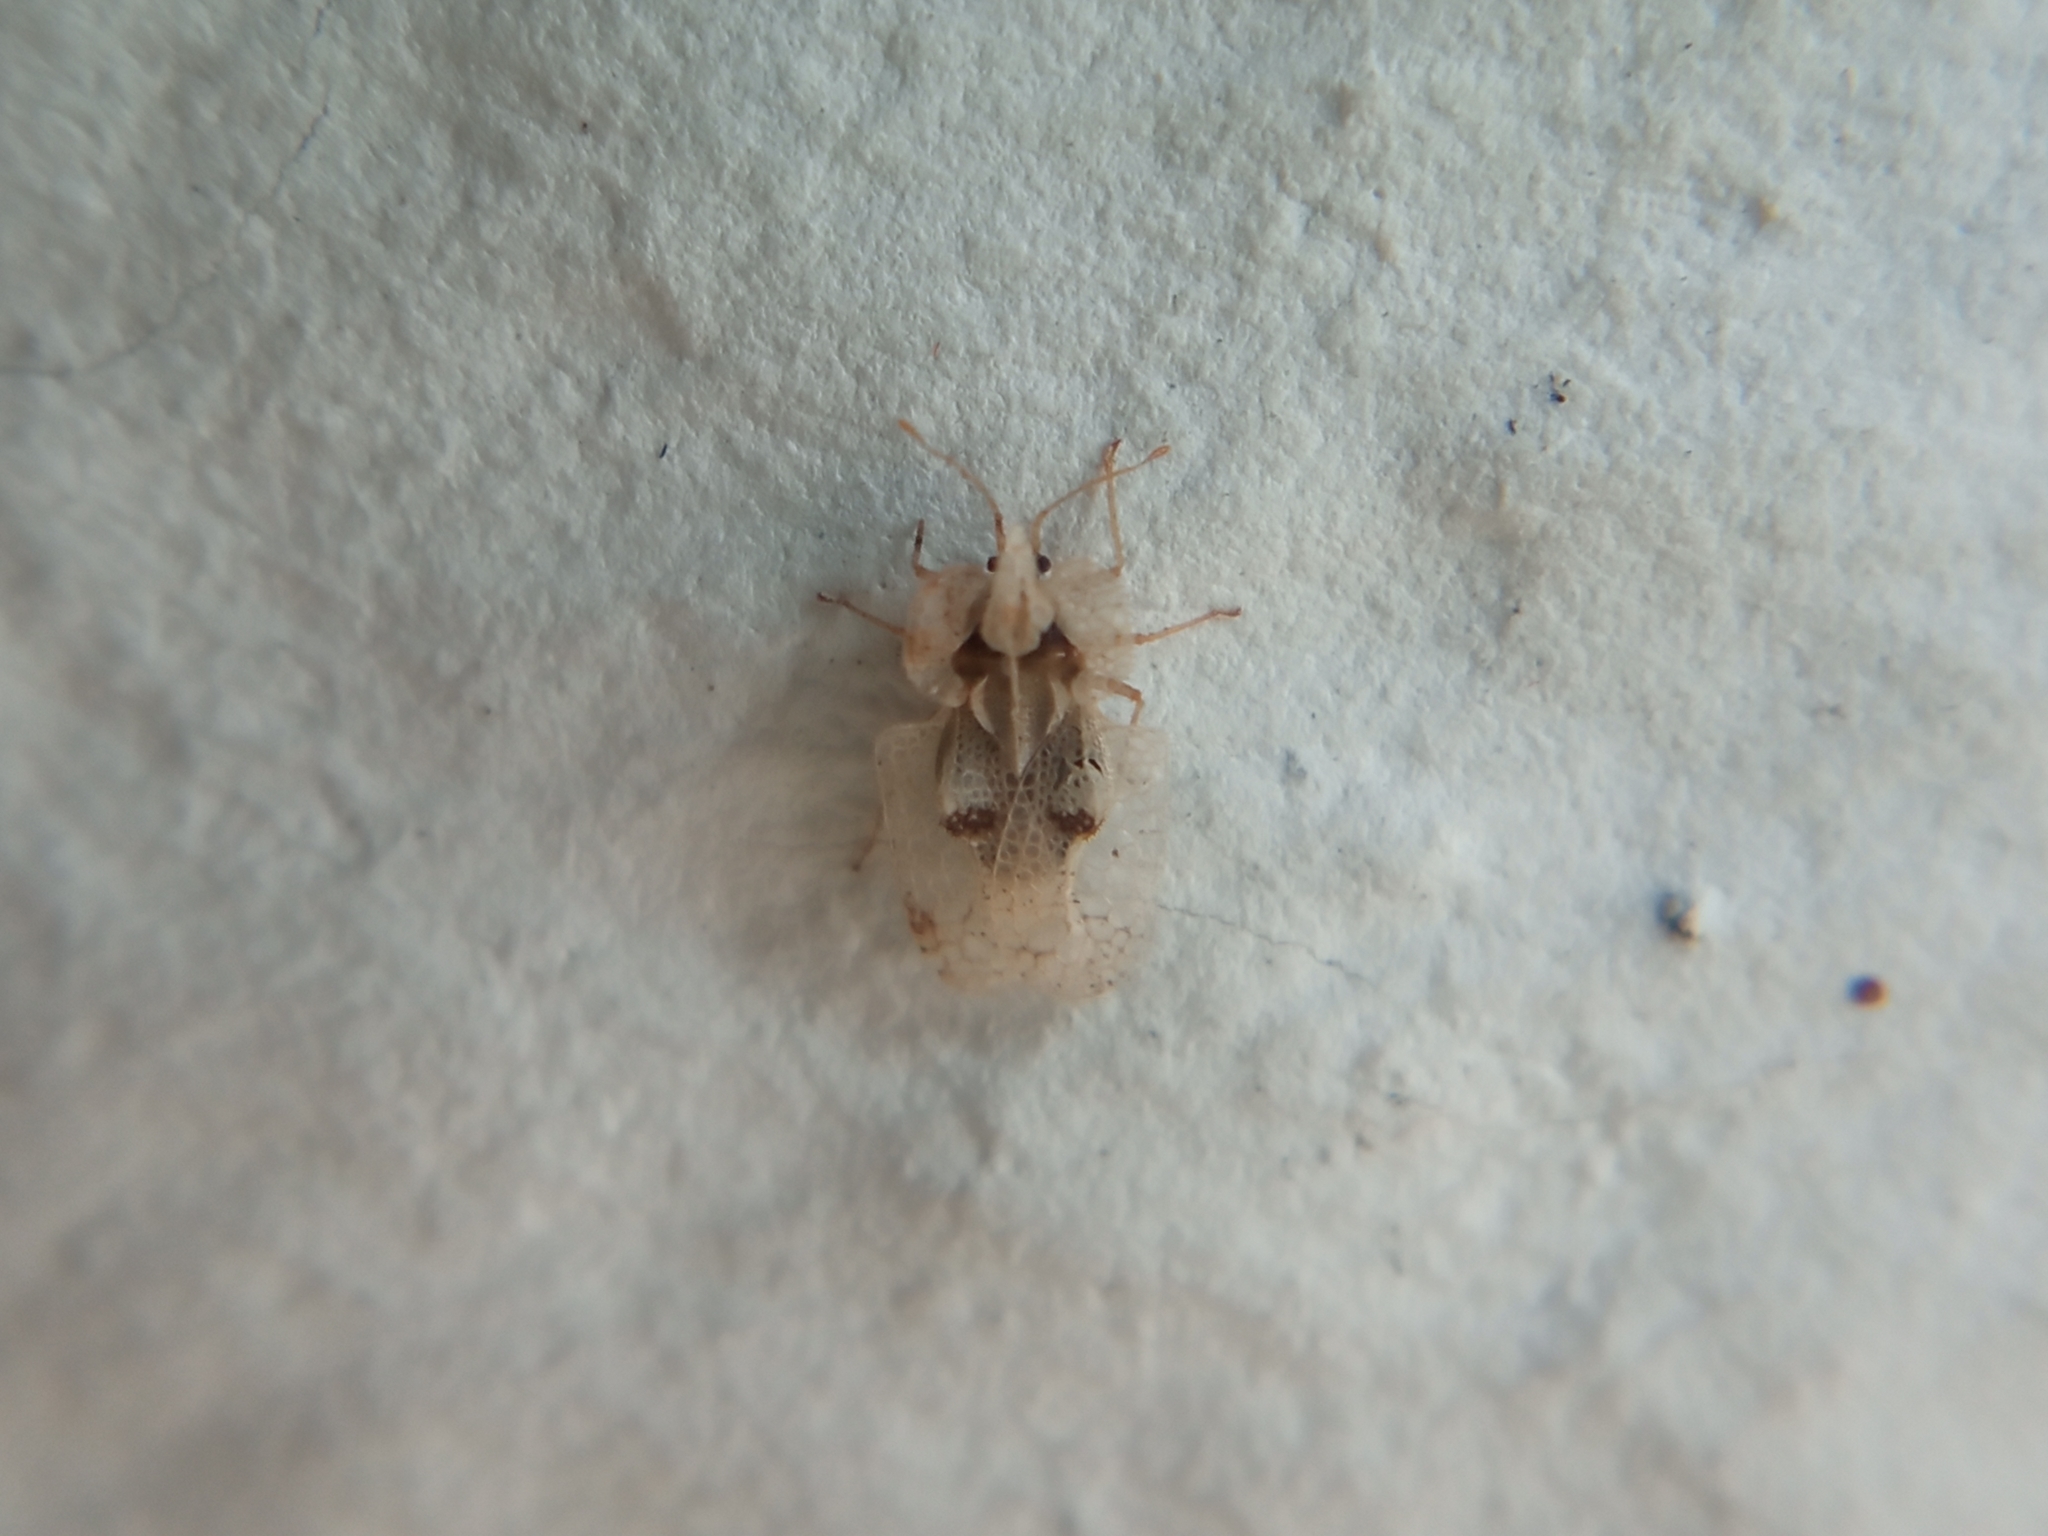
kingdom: Animalia
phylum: Arthropoda
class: Insecta
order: Hemiptera
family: Tingidae
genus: Corythucha
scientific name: Corythucha ciliata
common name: Sycamore lace bug
